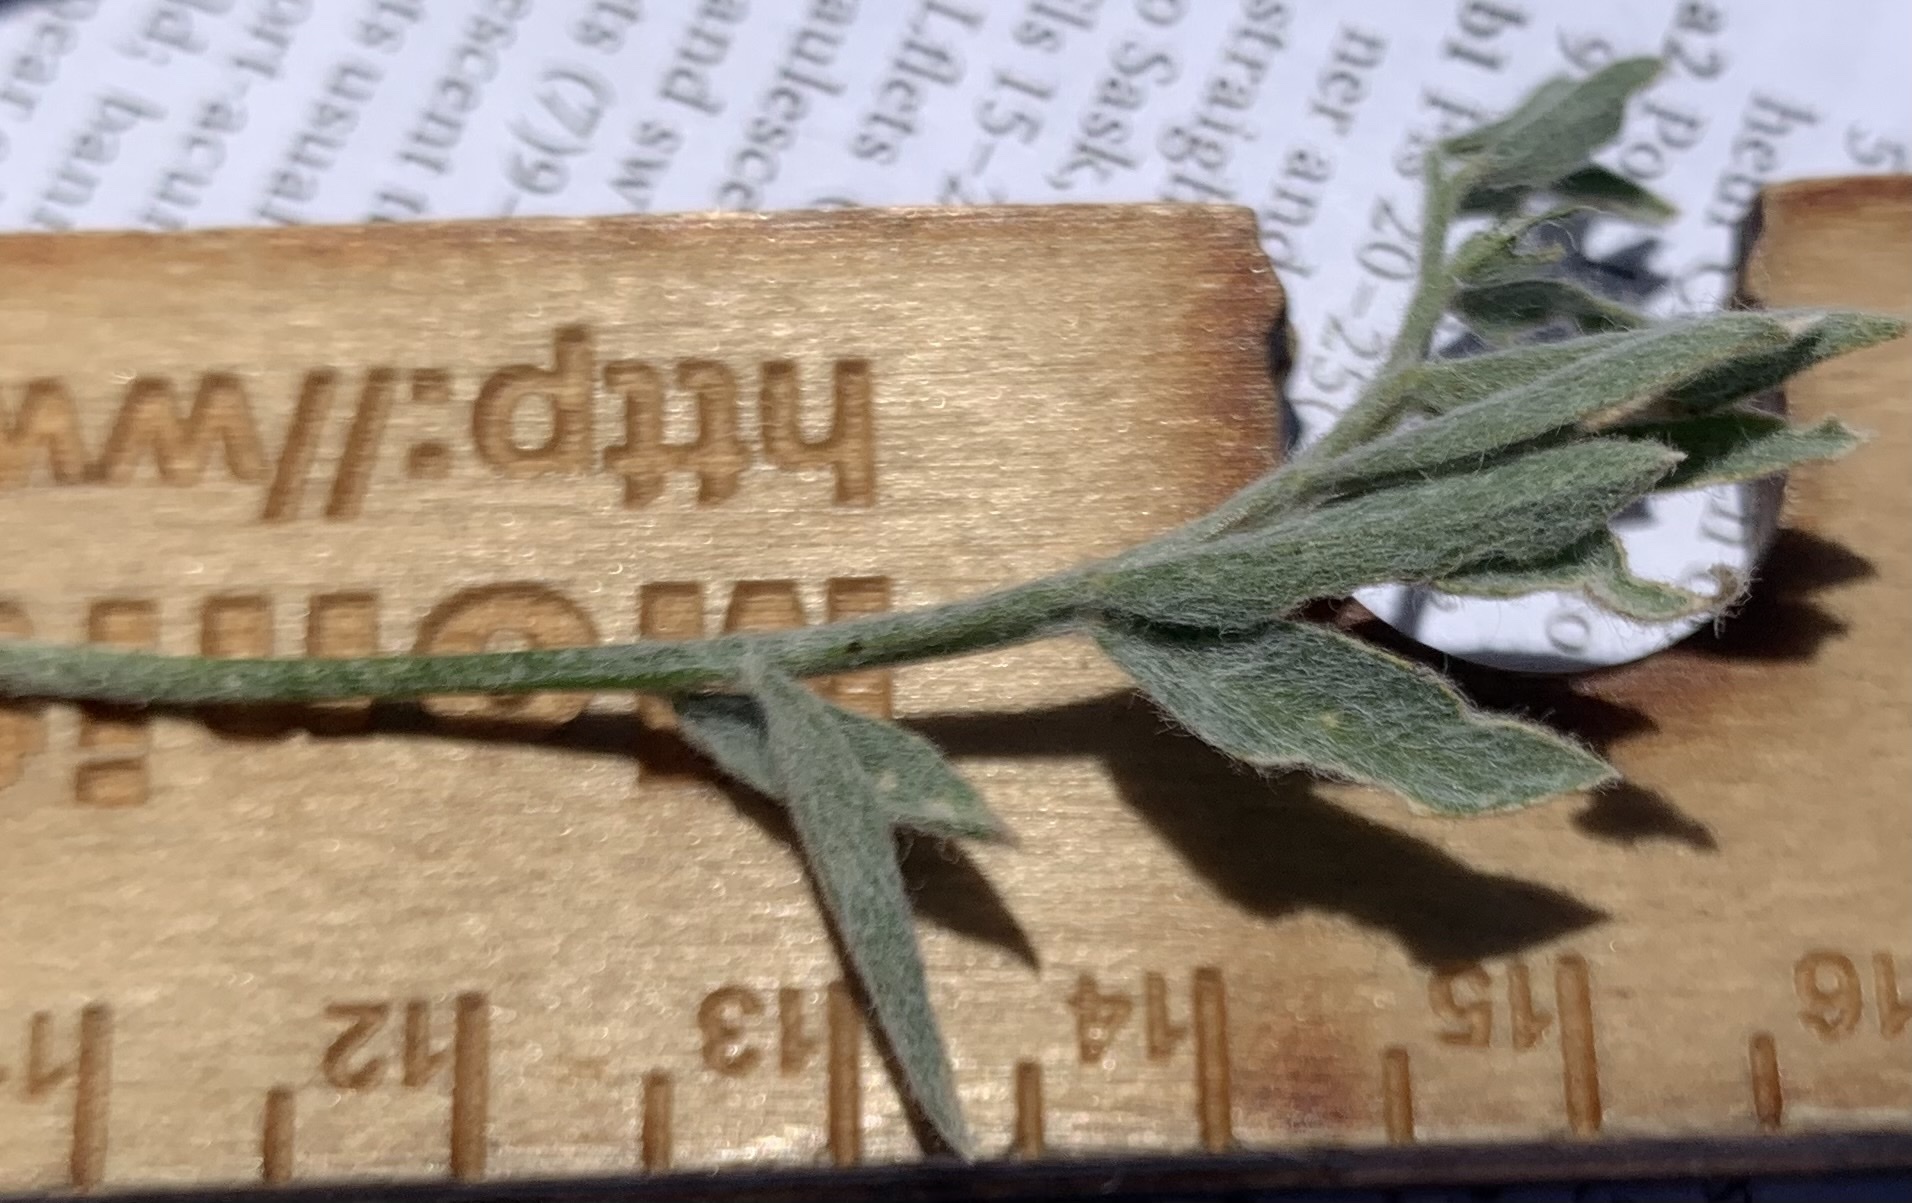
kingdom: Plantae
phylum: Tracheophyta
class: Magnoliopsida
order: Fabales
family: Fabaceae
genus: Astragalus
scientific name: Astragalus purshii
